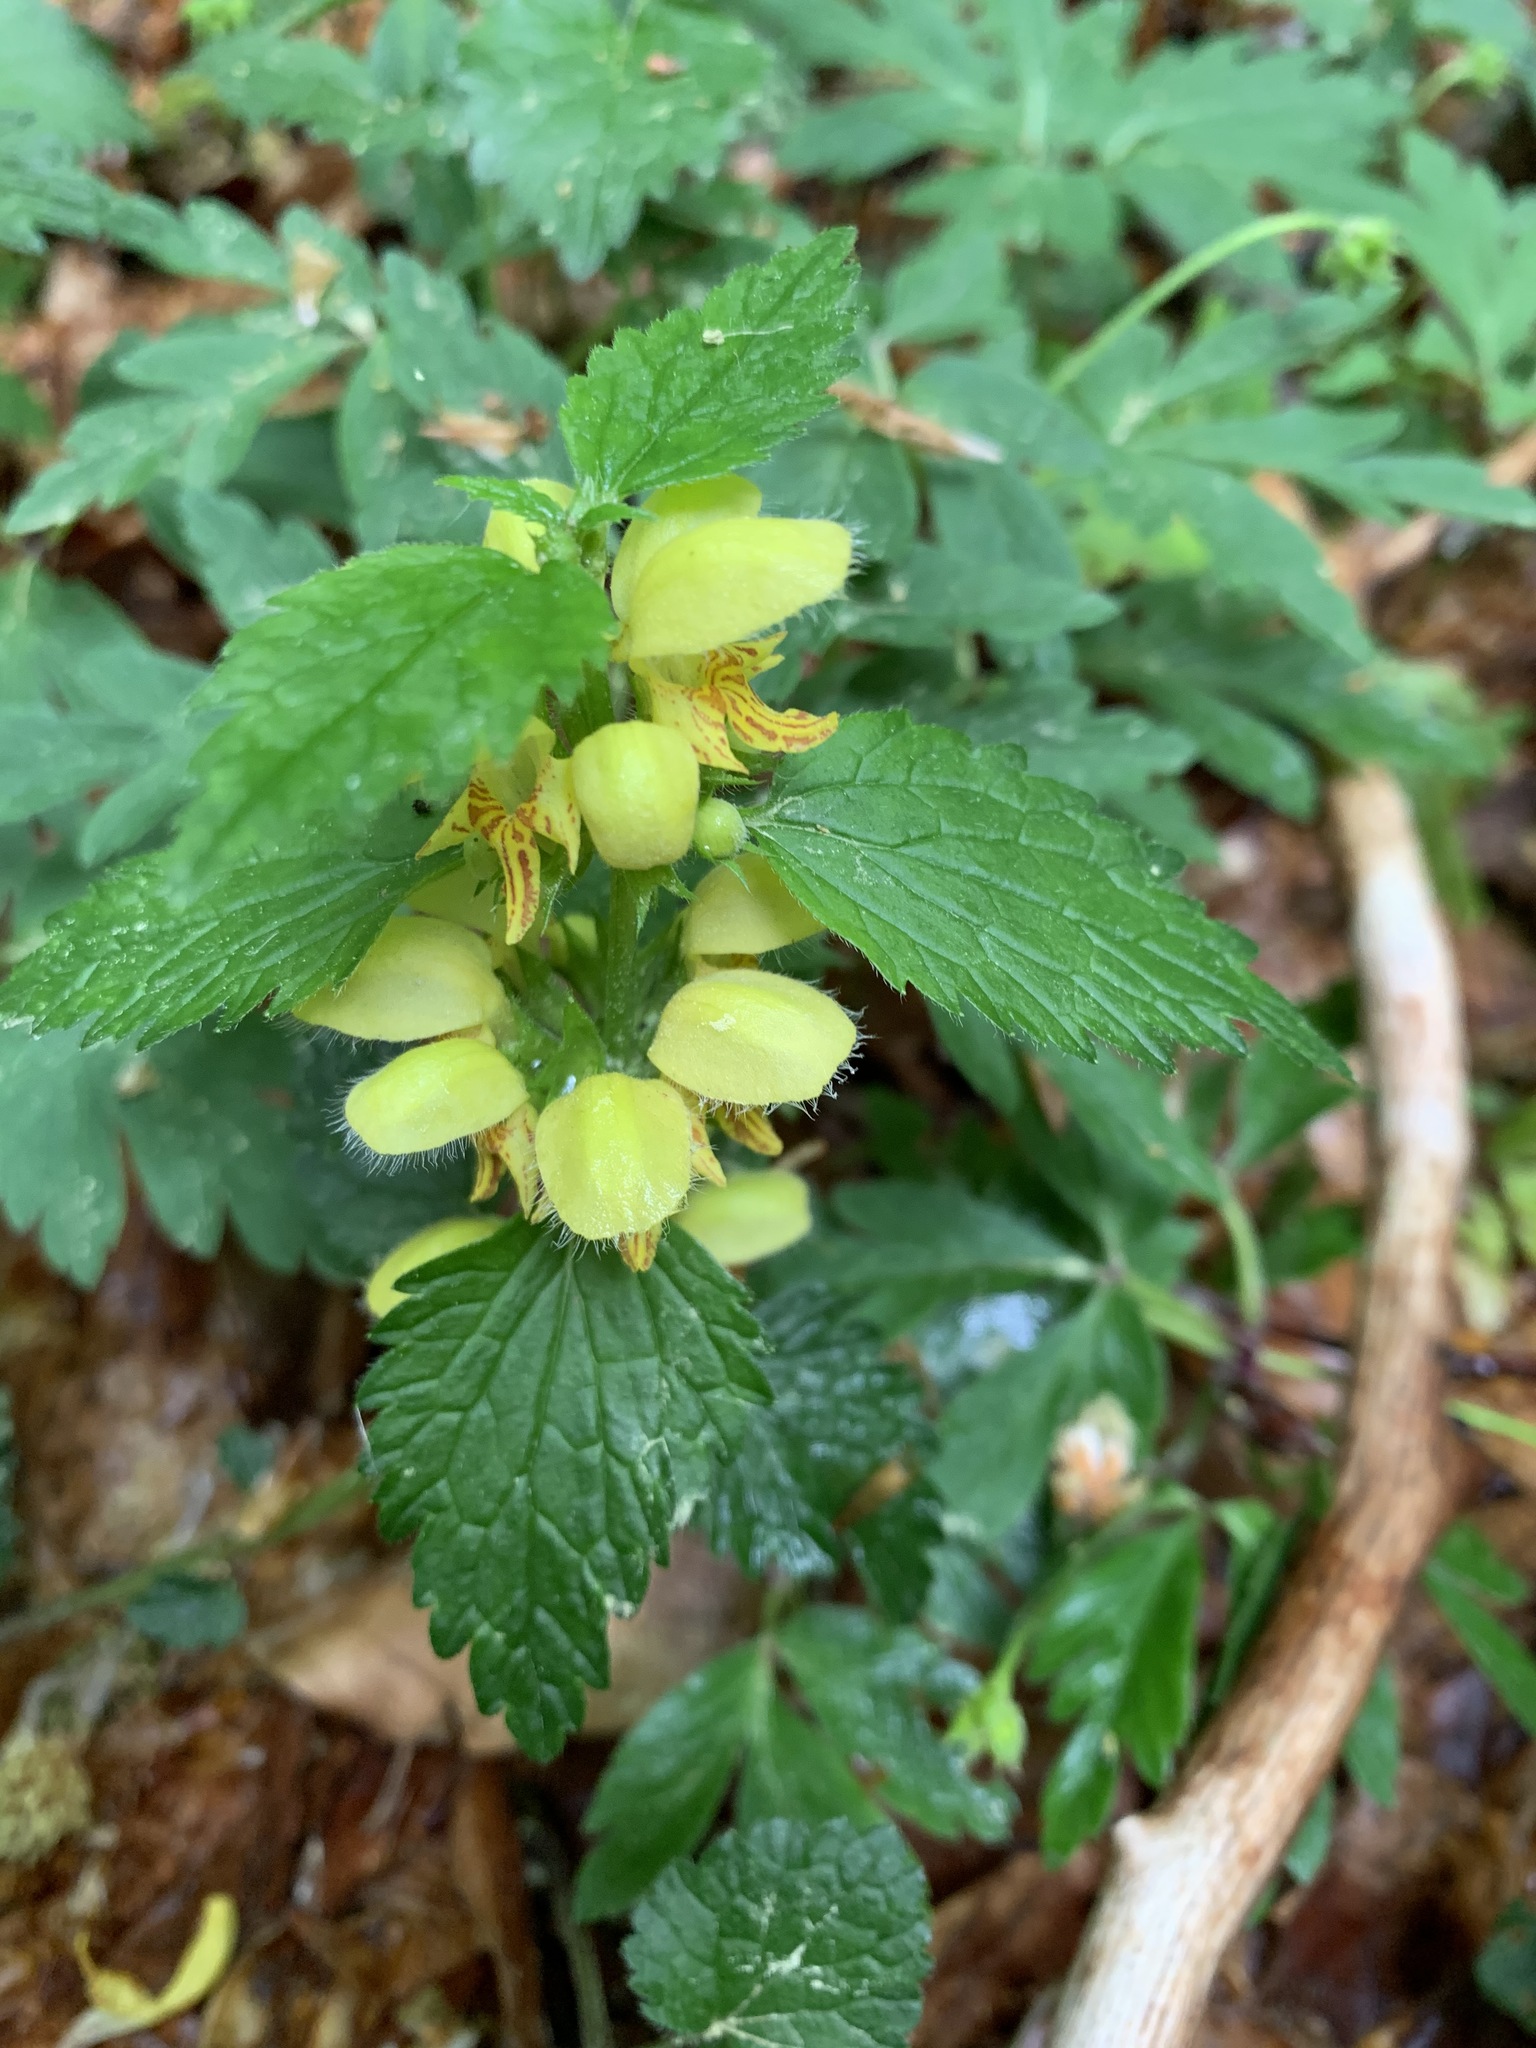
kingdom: Plantae
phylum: Tracheophyta
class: Magnoliopsida
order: Lamiales
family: Lamiaceae
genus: Lamium
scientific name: Lamium galeobdolon
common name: Yellow archangel
